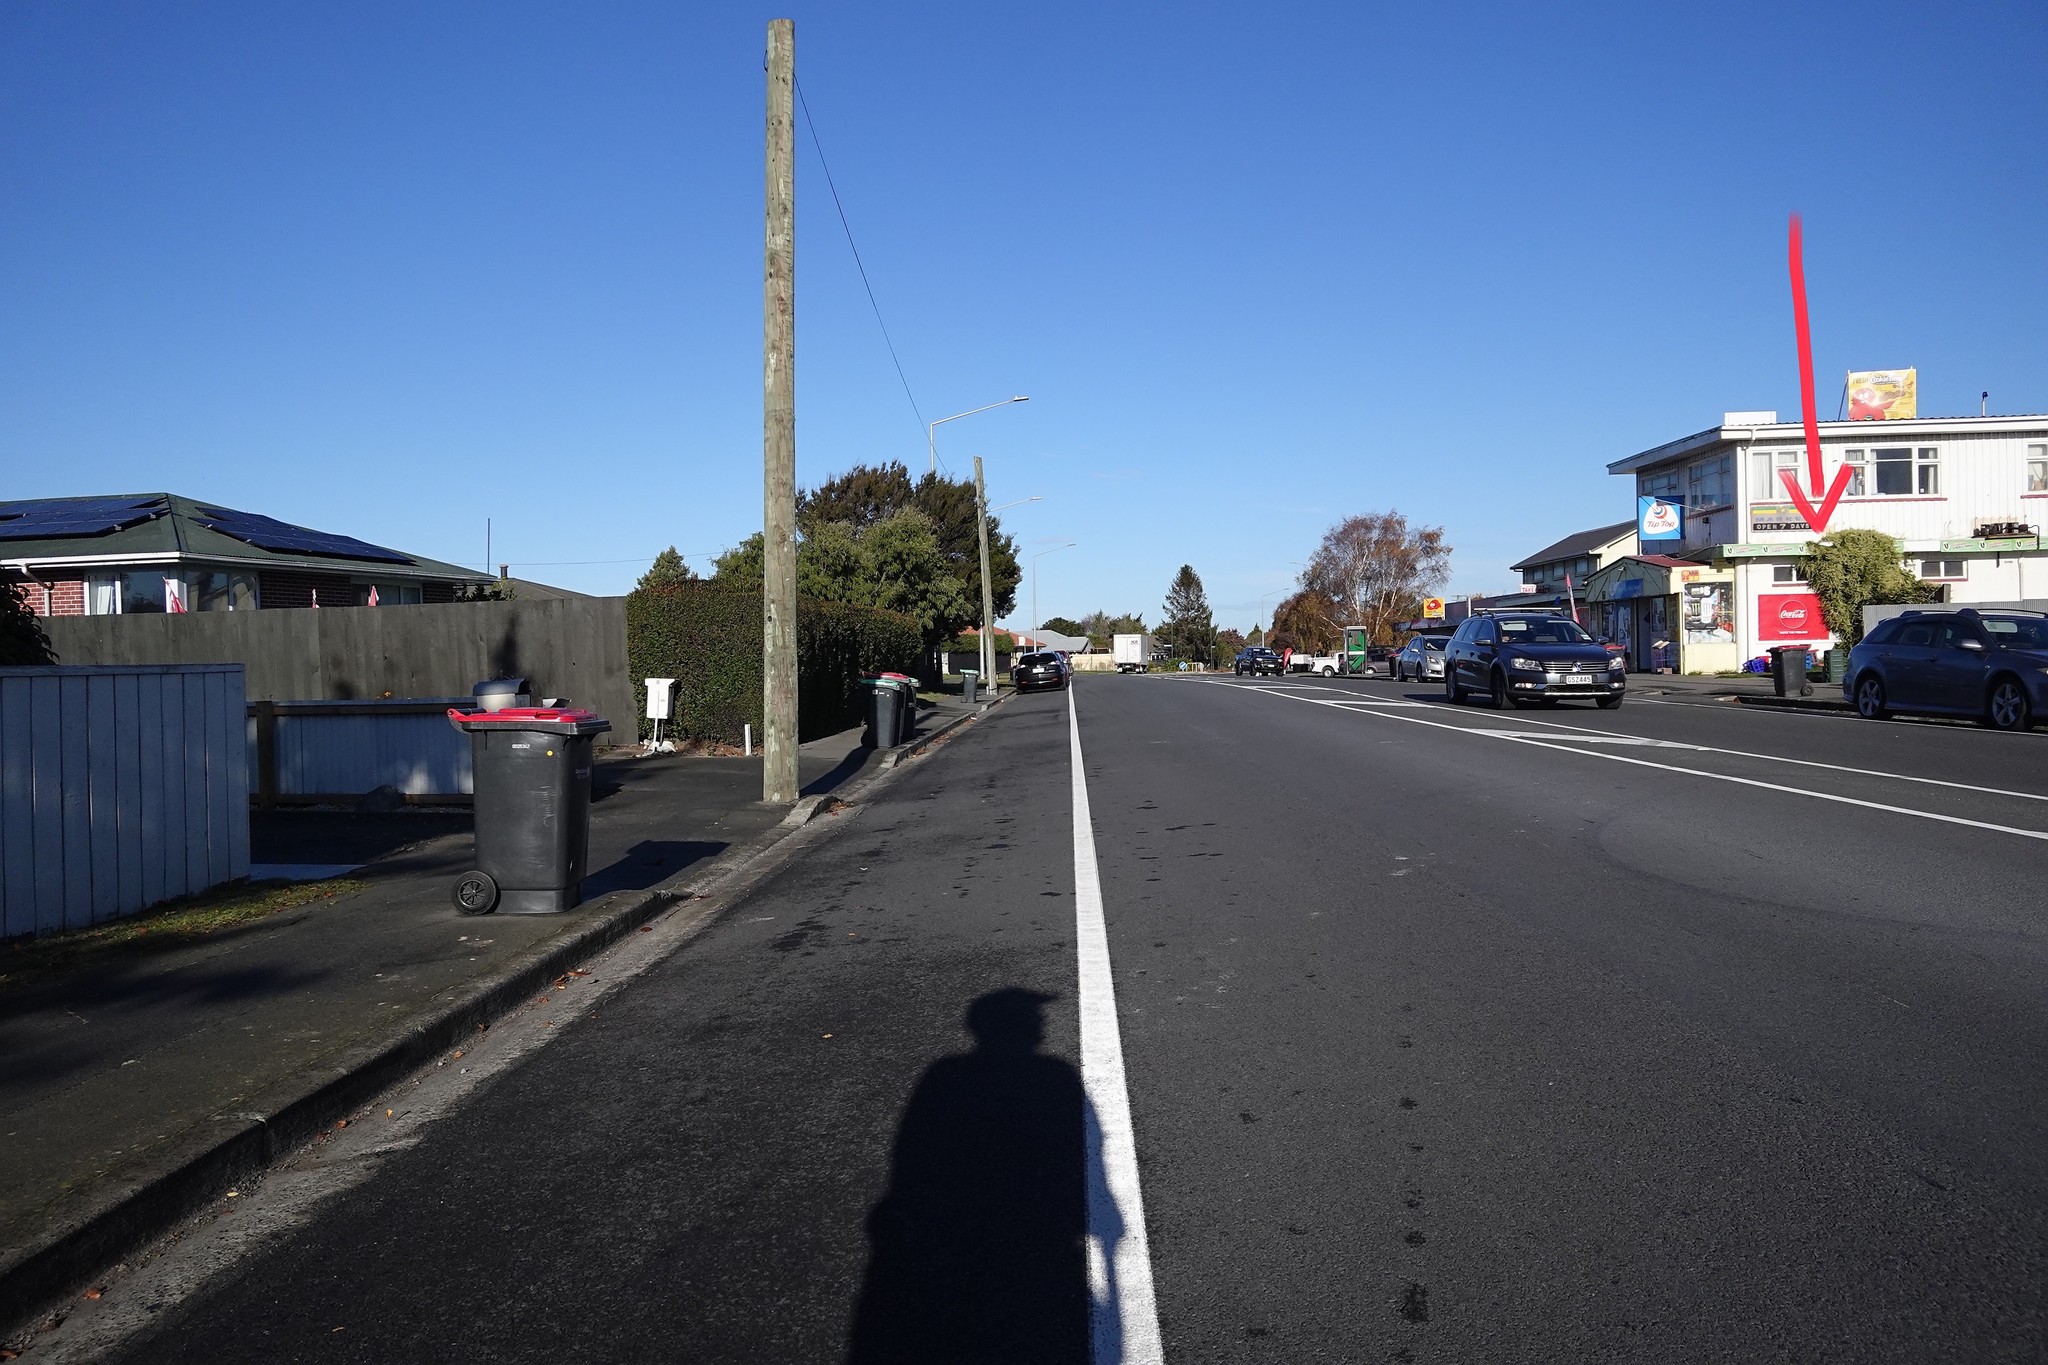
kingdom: Plantae
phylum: Tracheophyta
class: Magnoliopsida
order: Caryophyllales
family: Basellaceae
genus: Anredera
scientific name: Anredera cordifolia
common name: Heartleaf madeiravine
